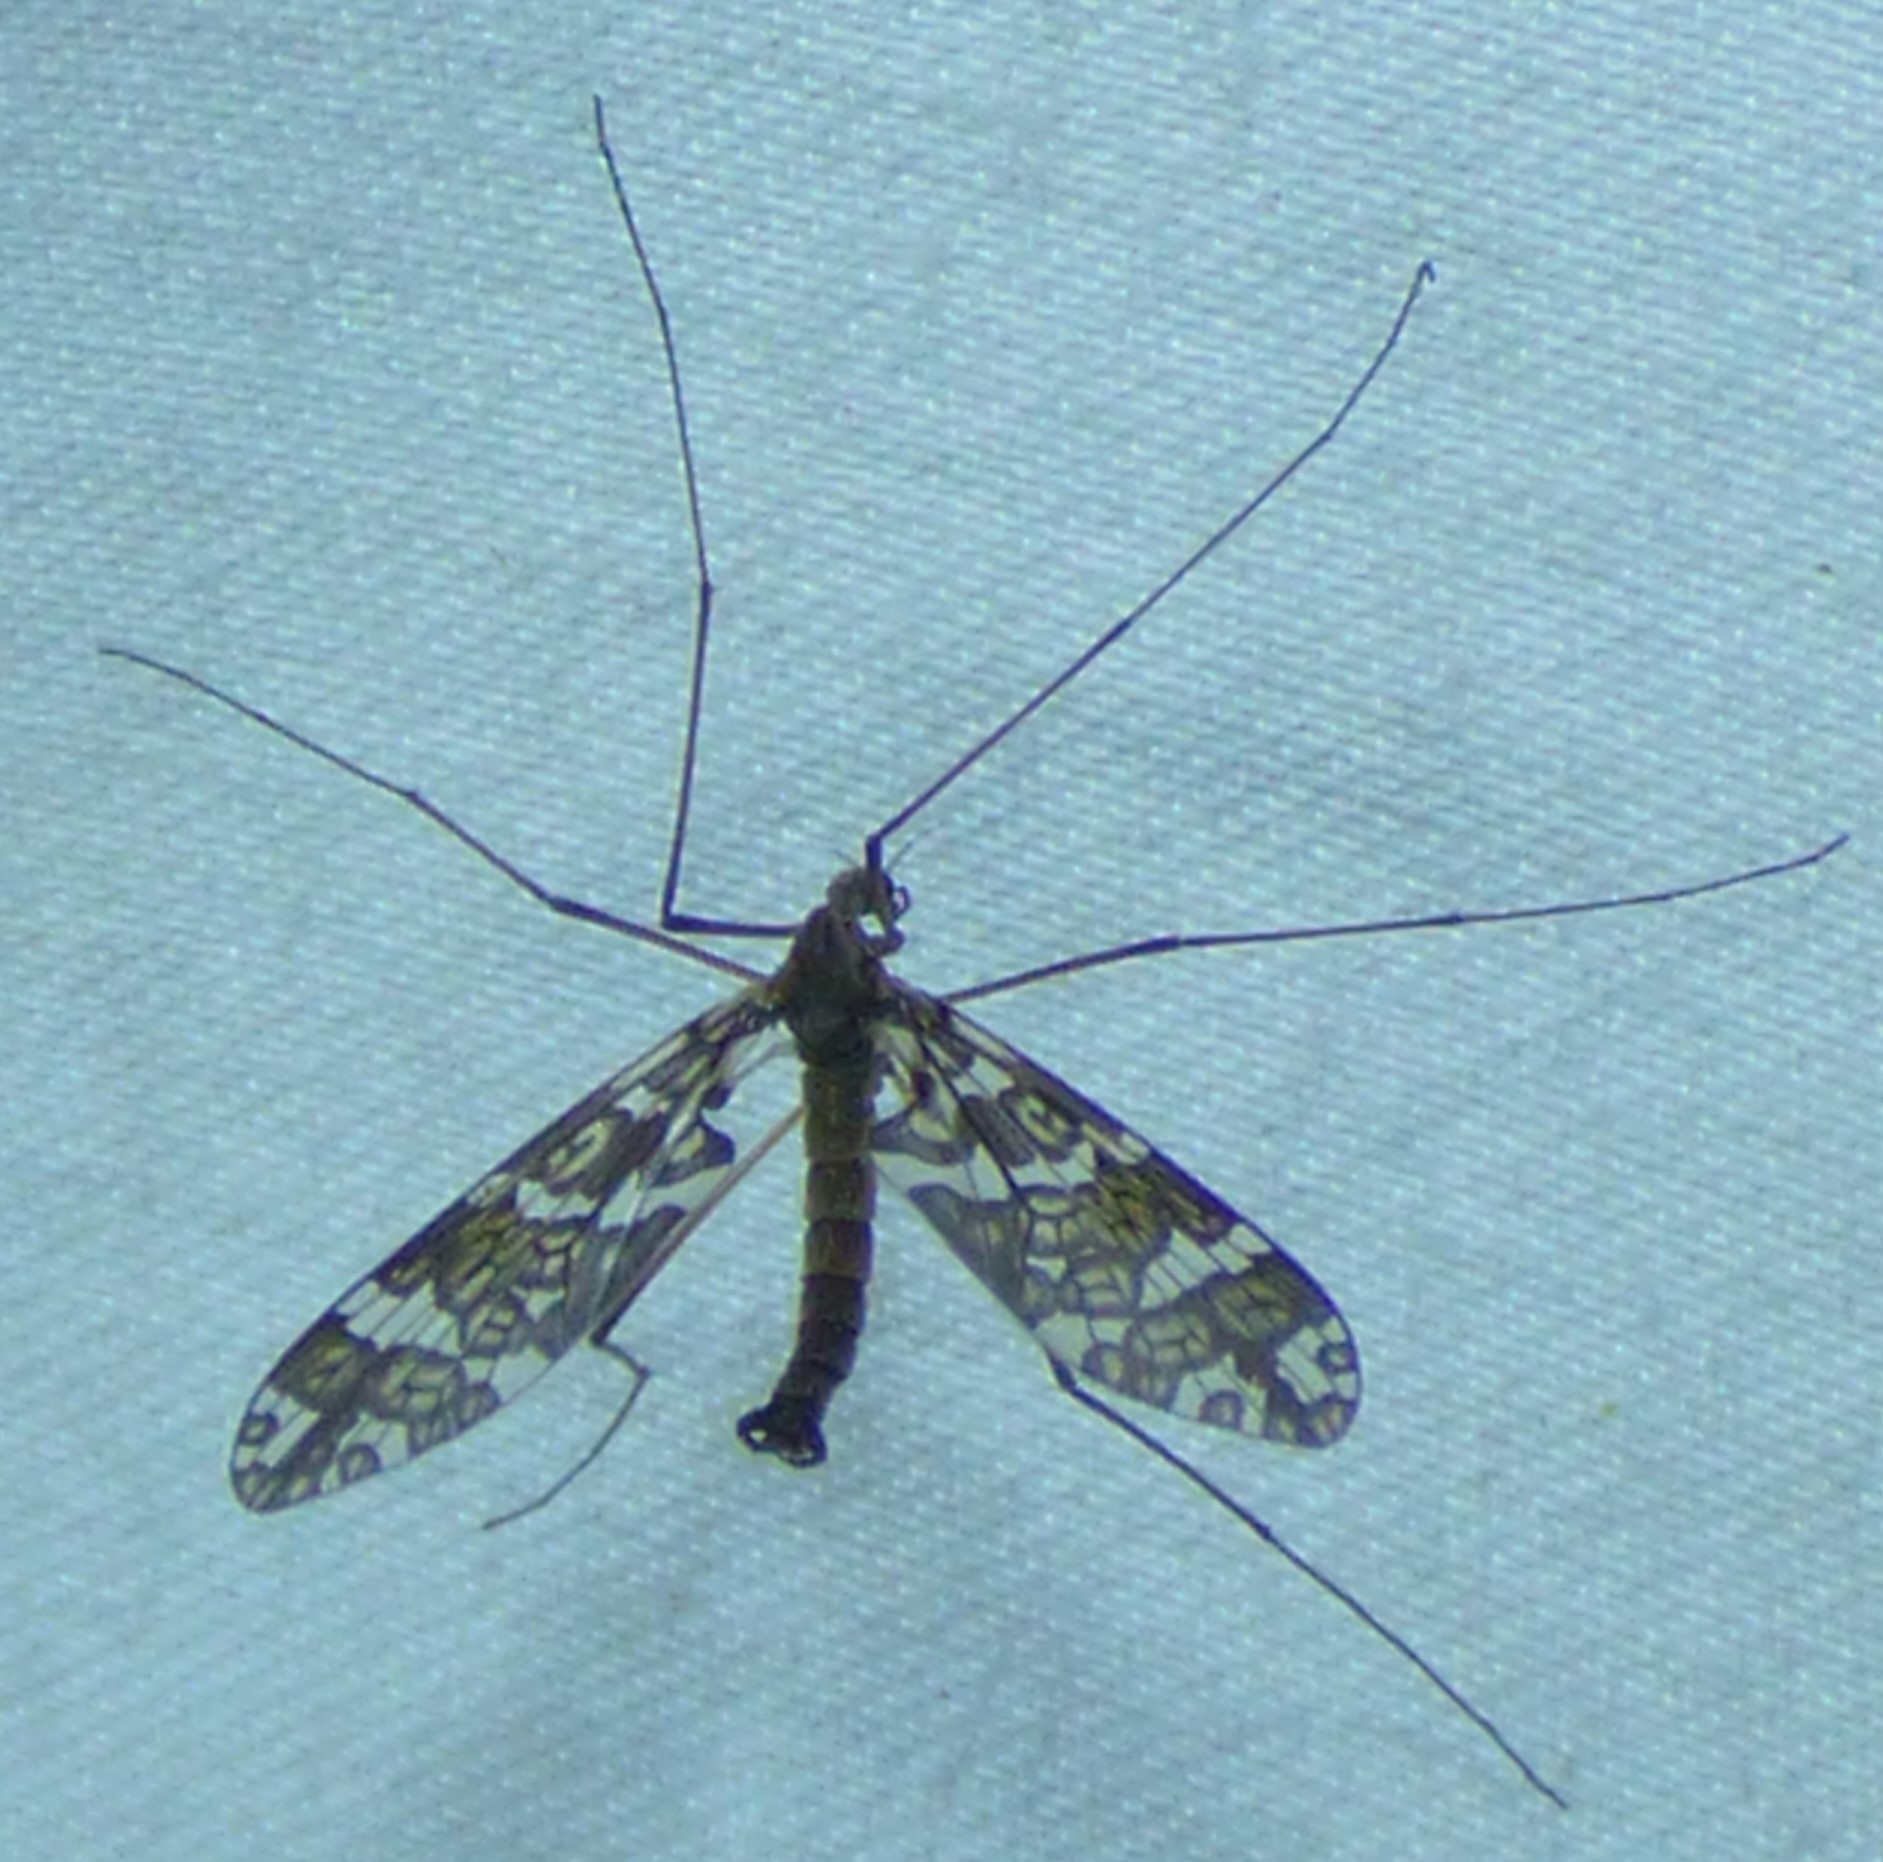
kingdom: Animalia
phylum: Arthropoda
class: Insecta
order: Diptera
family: Tanyderidae
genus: Protoplasa
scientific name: Protoplasa fitchii
